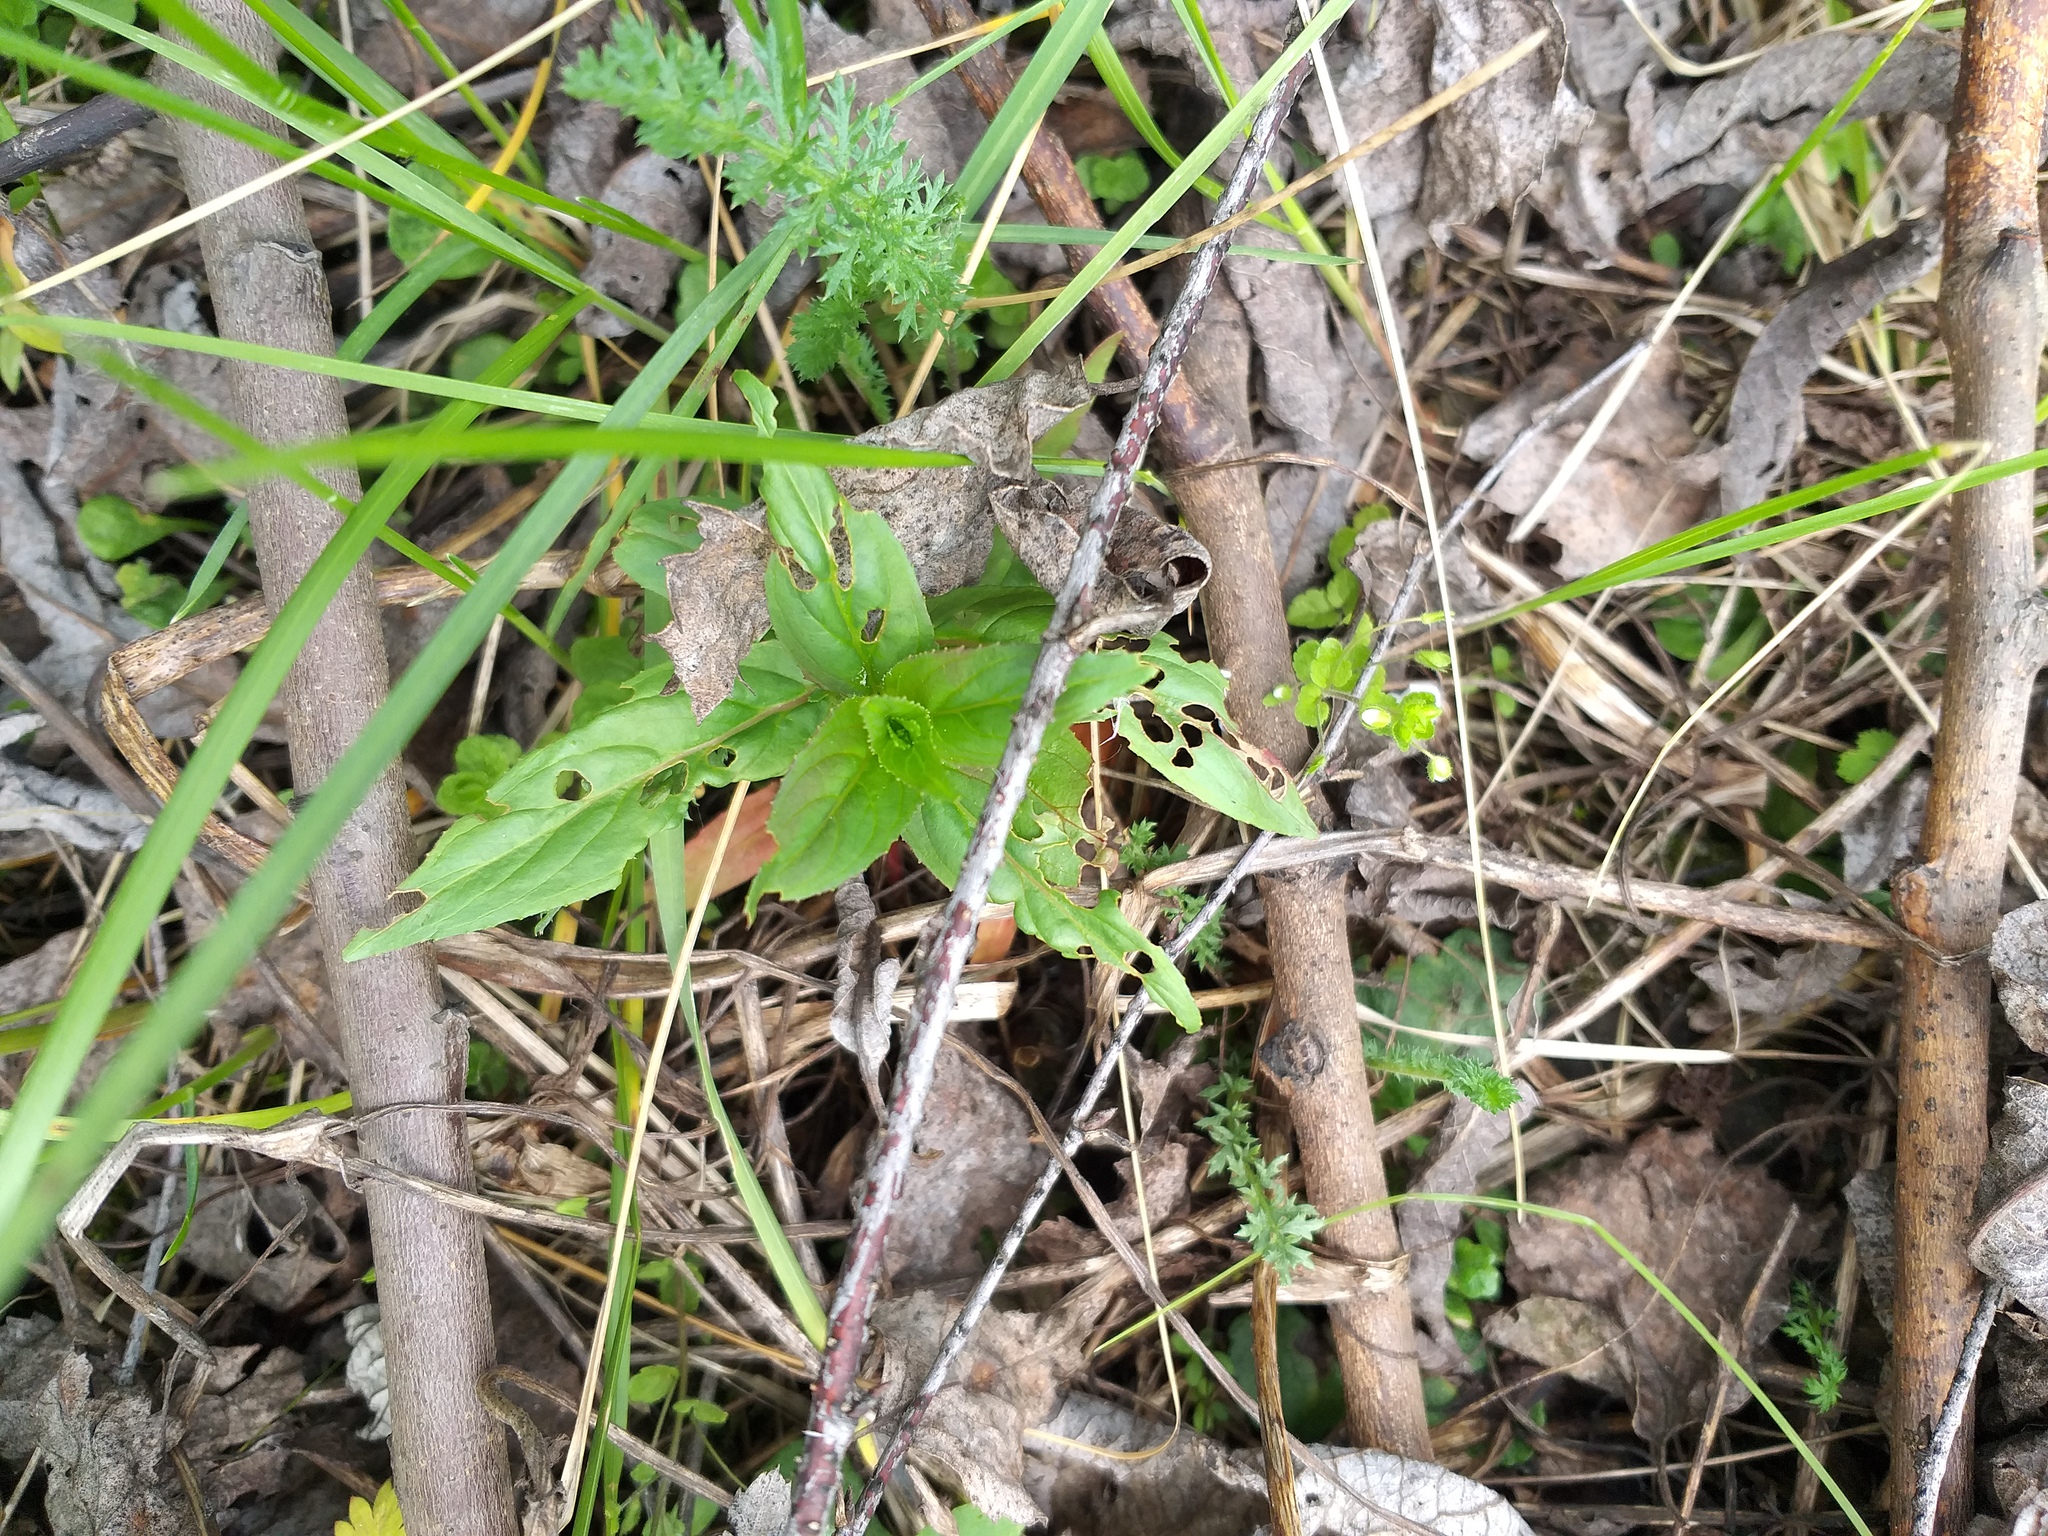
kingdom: Plantae
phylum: Tracheophyta
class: Magnoliopsida
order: Myrtales
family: Onagraceae
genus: Epilobium
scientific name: Epilobium
